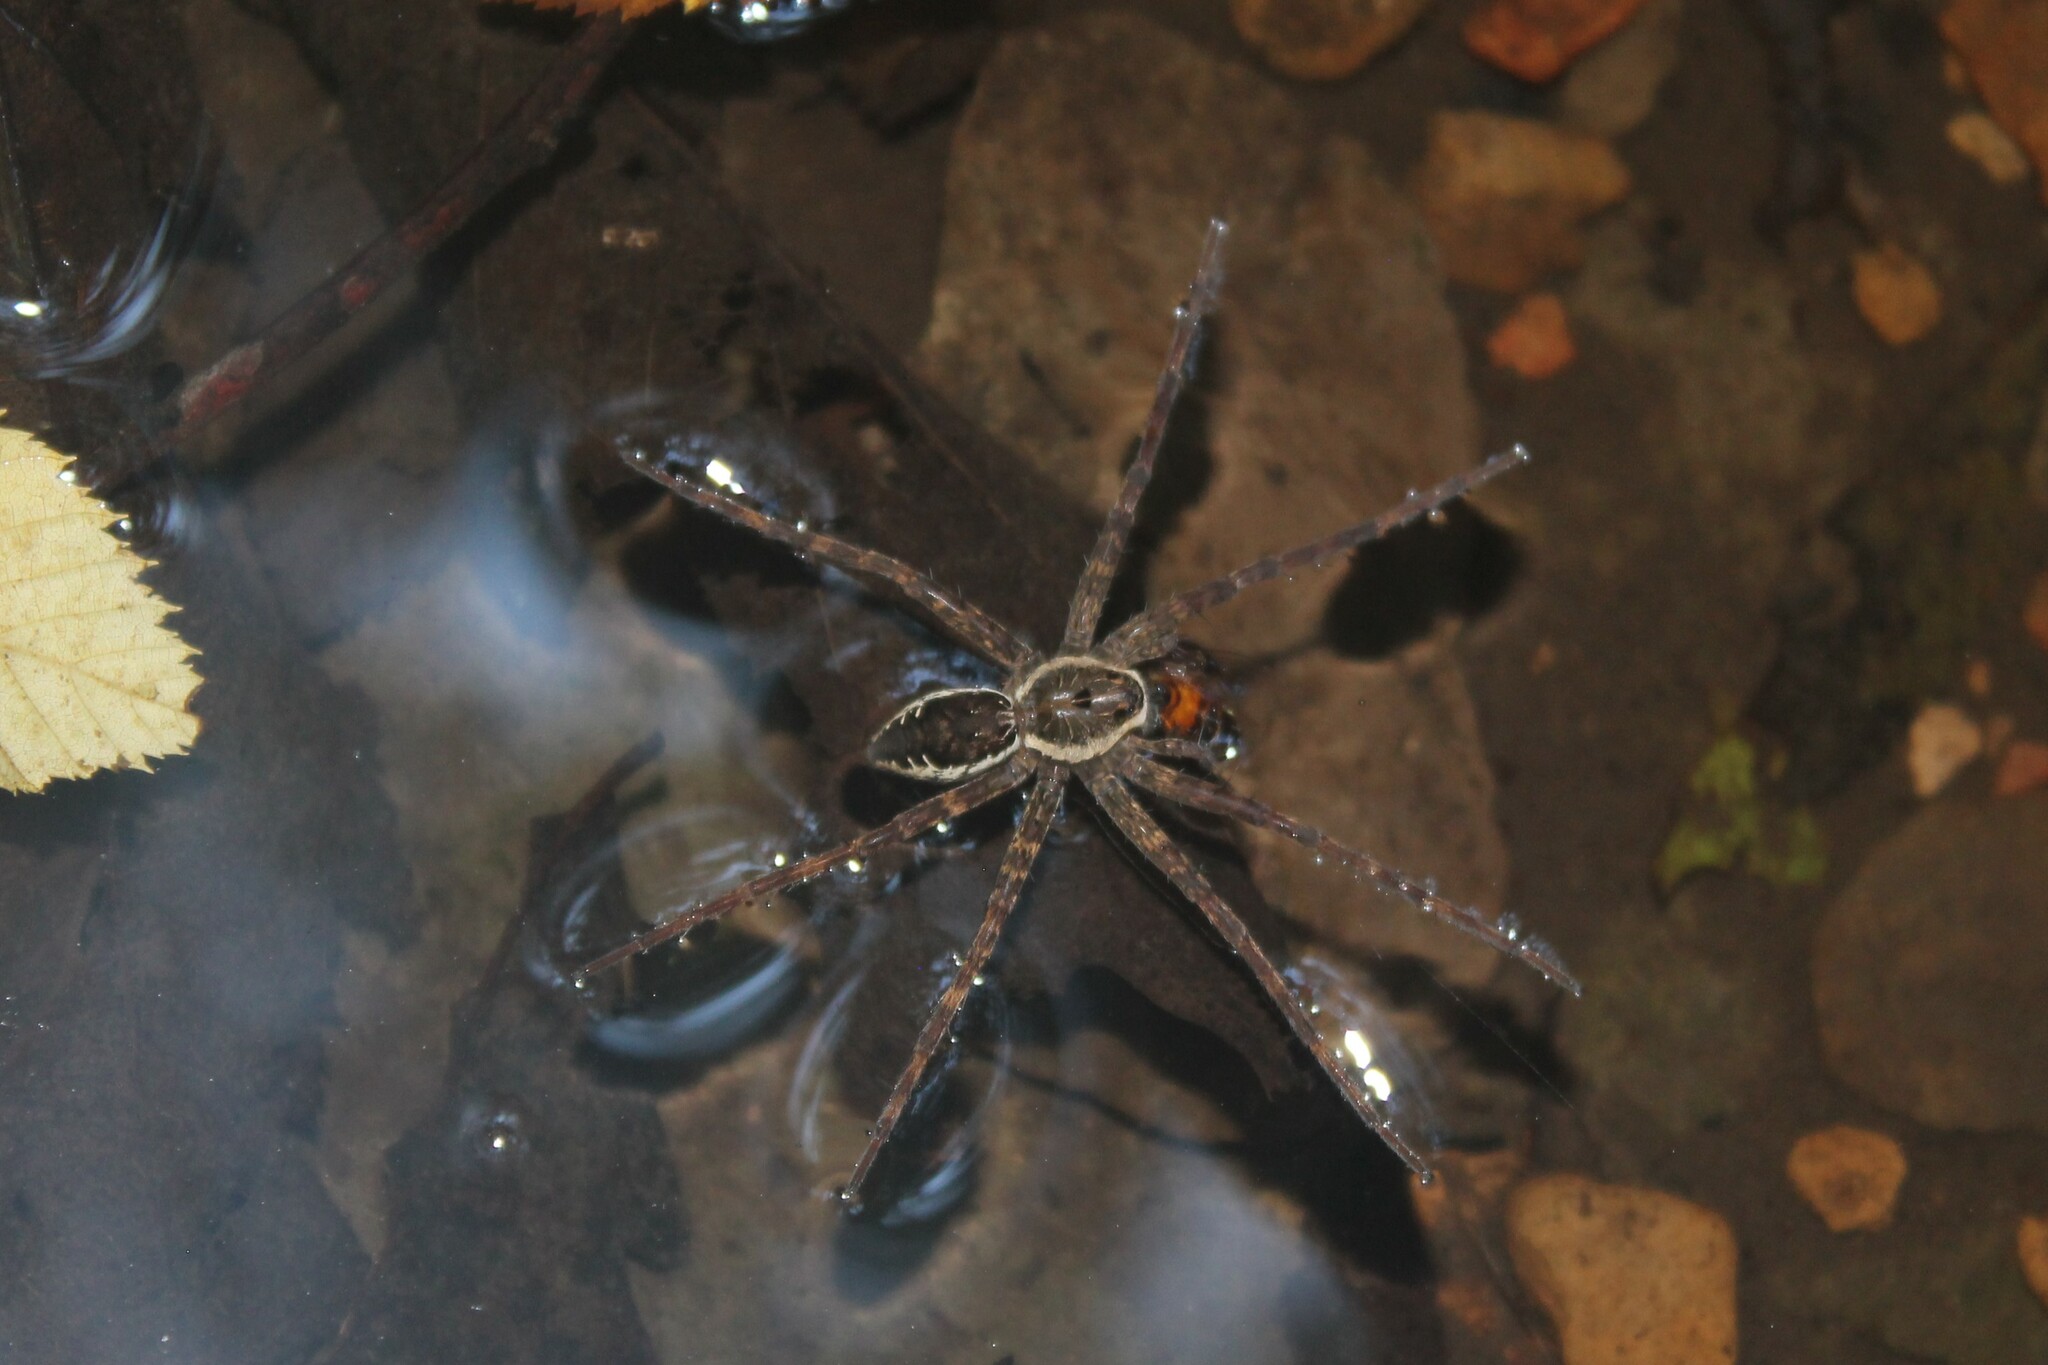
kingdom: Animalia
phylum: Arthropoda
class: Arachnida
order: Araneae
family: Pisauridae
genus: Dolomedes
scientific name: Dolomedes vittatus
